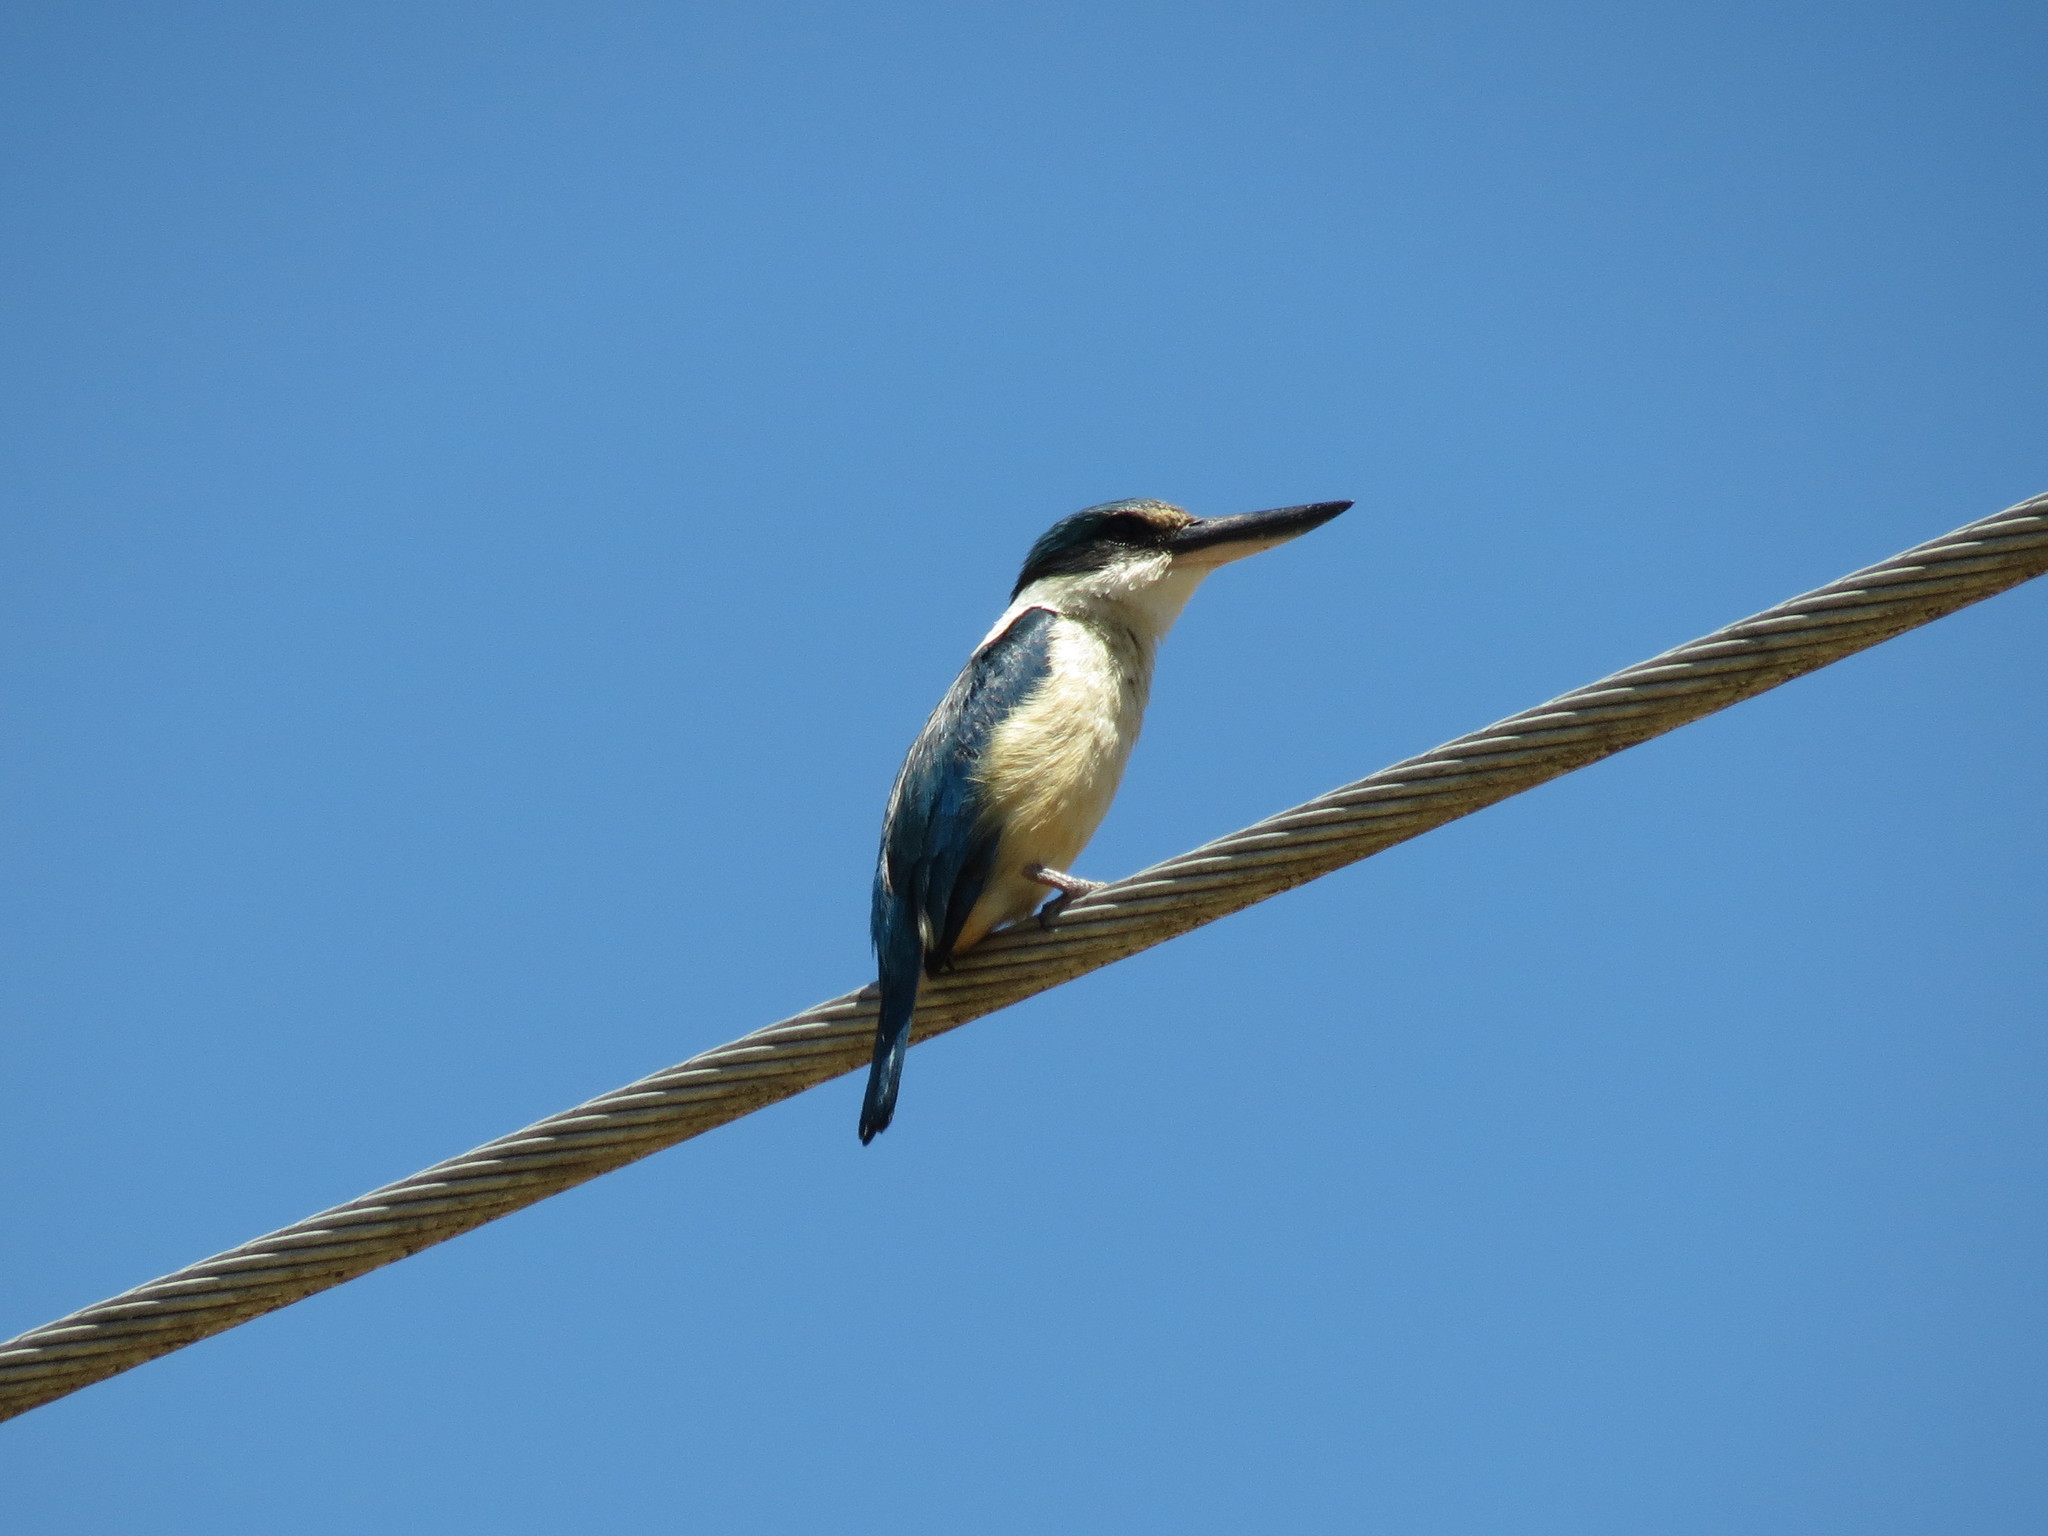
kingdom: Animalia
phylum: Chordata
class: Aves
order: Coraciiformes
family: Alcedinidae
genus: Todiramphus
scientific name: Todiramphus sanctus
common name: Sacred kingfisher
